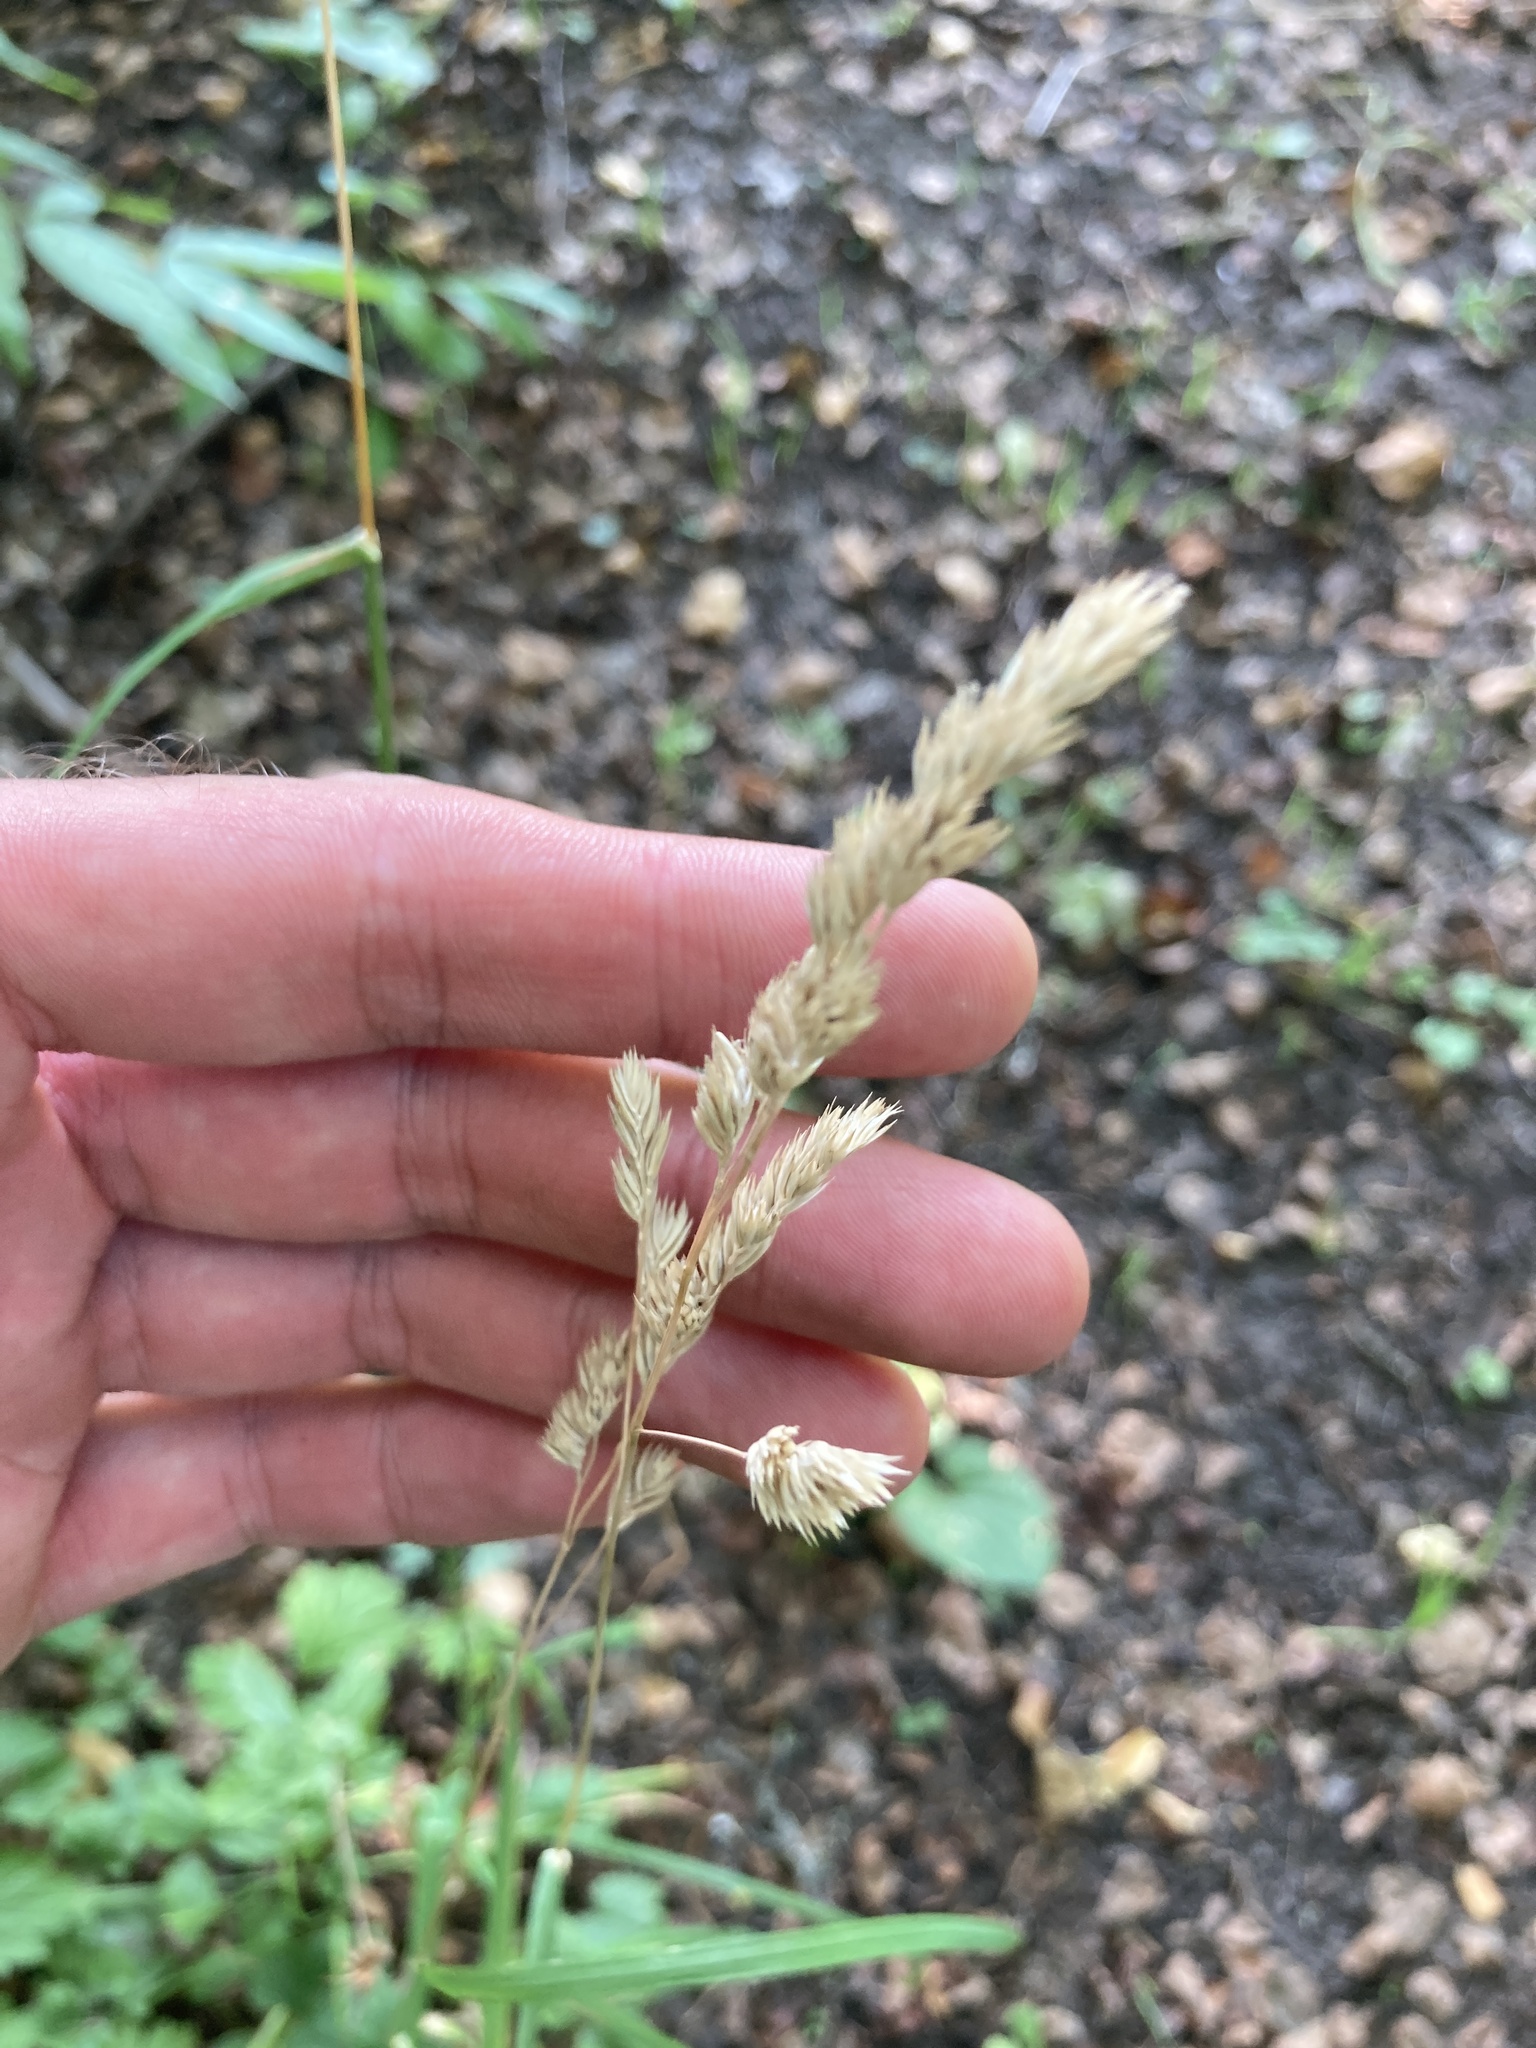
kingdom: Plantae
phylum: Tracheophyta
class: Liliopsida
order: Poales
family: Poaceae
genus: Dactylis
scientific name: Dactylis glomerata
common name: Orchardgrass
